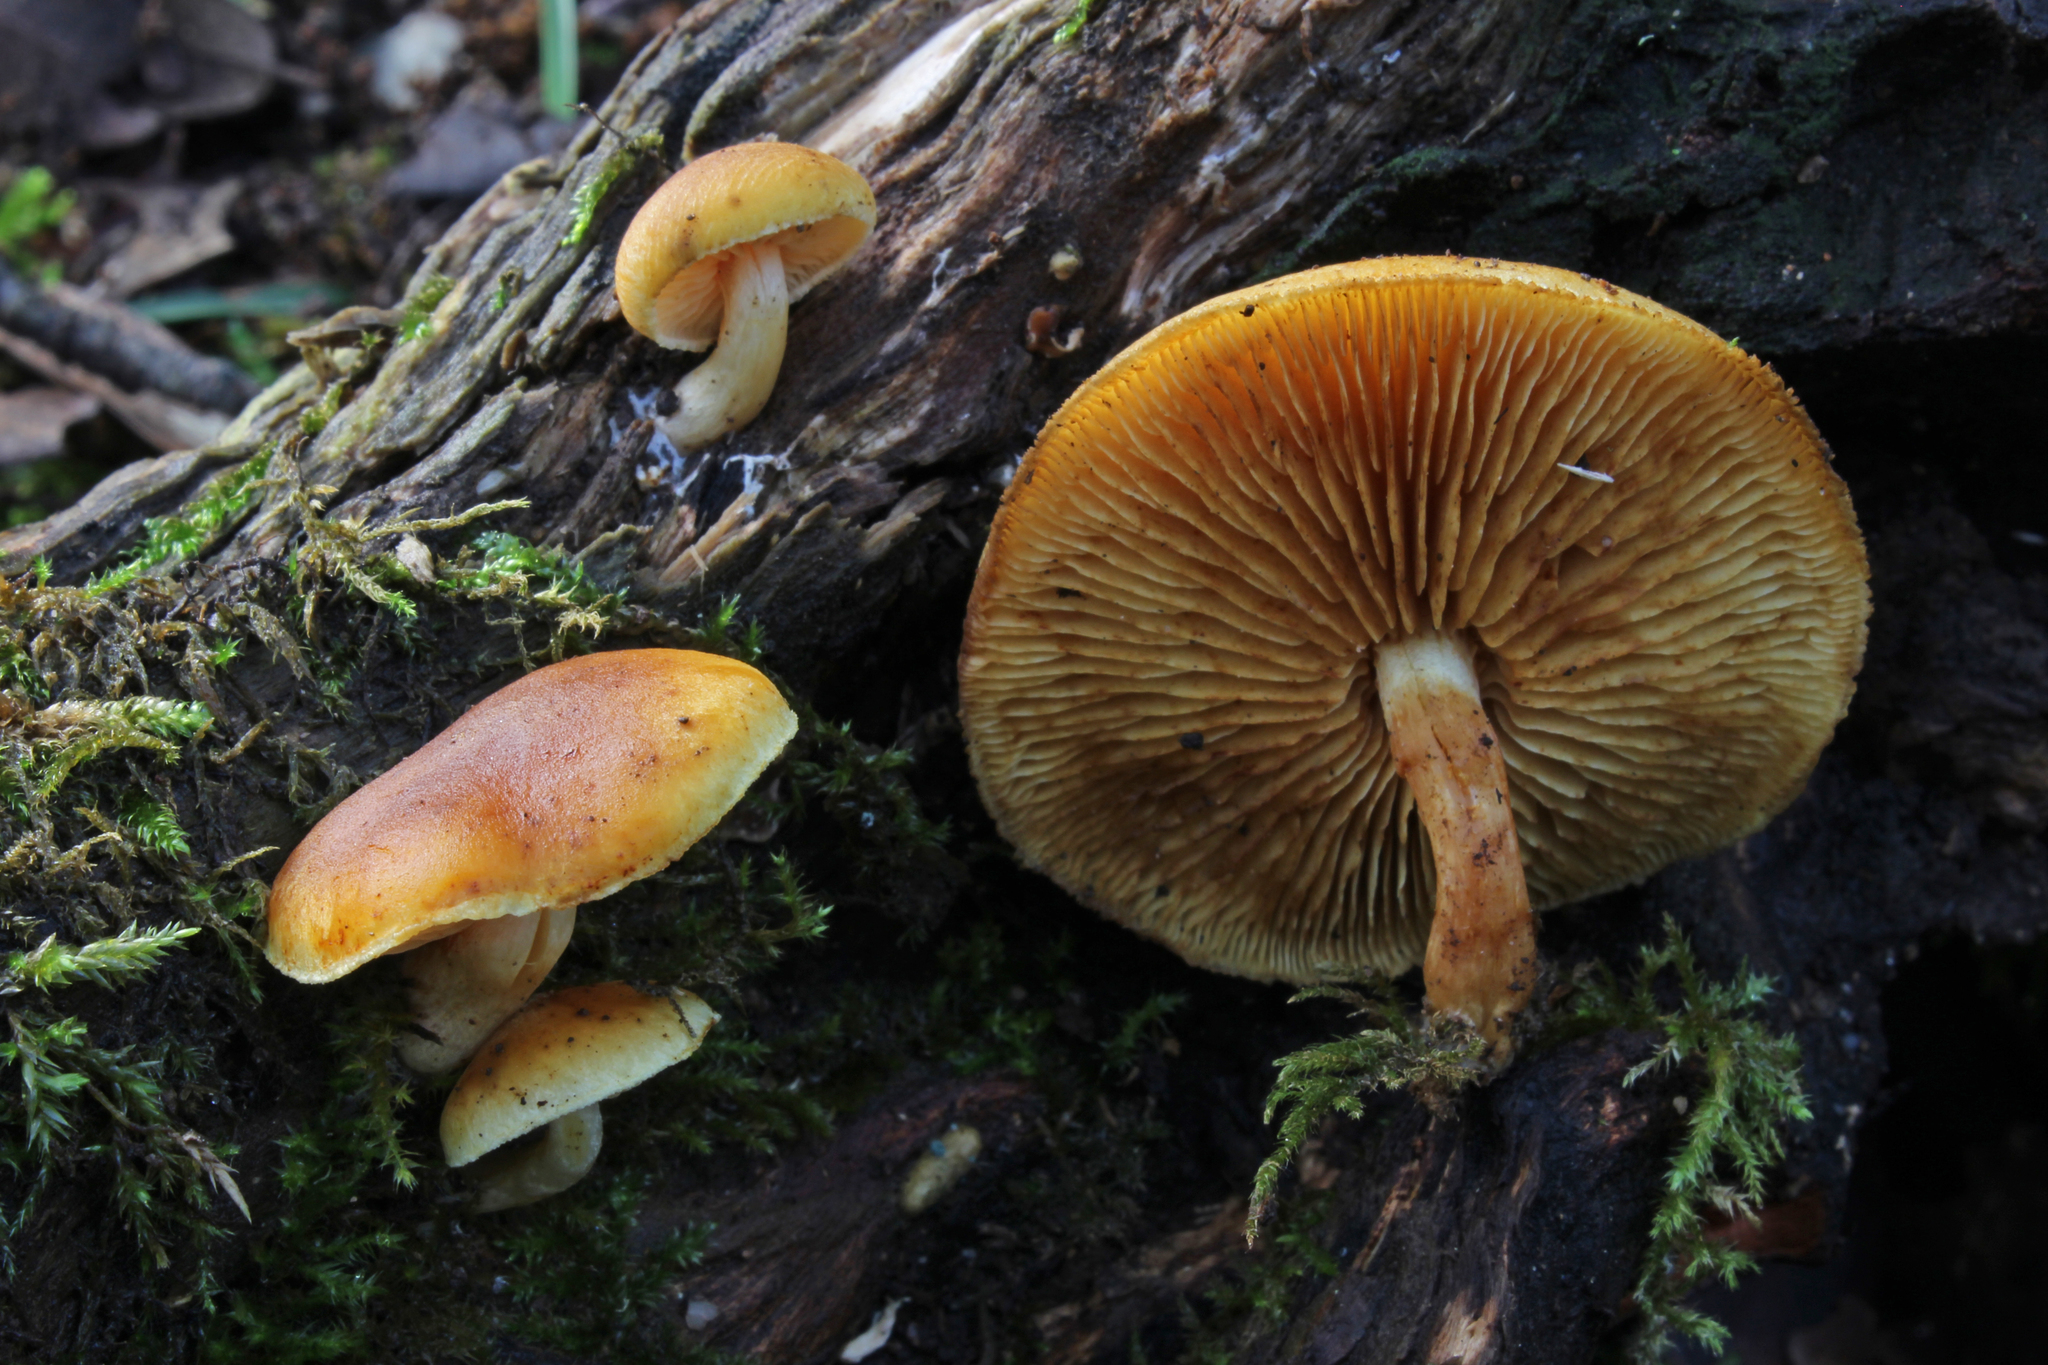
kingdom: Fungi
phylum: Basidiomycota
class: Agaricomycetes
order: Agaricales
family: Hymenogastraceae
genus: Gymnopilus
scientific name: Gymnopilus penetrans
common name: Common rustgill
